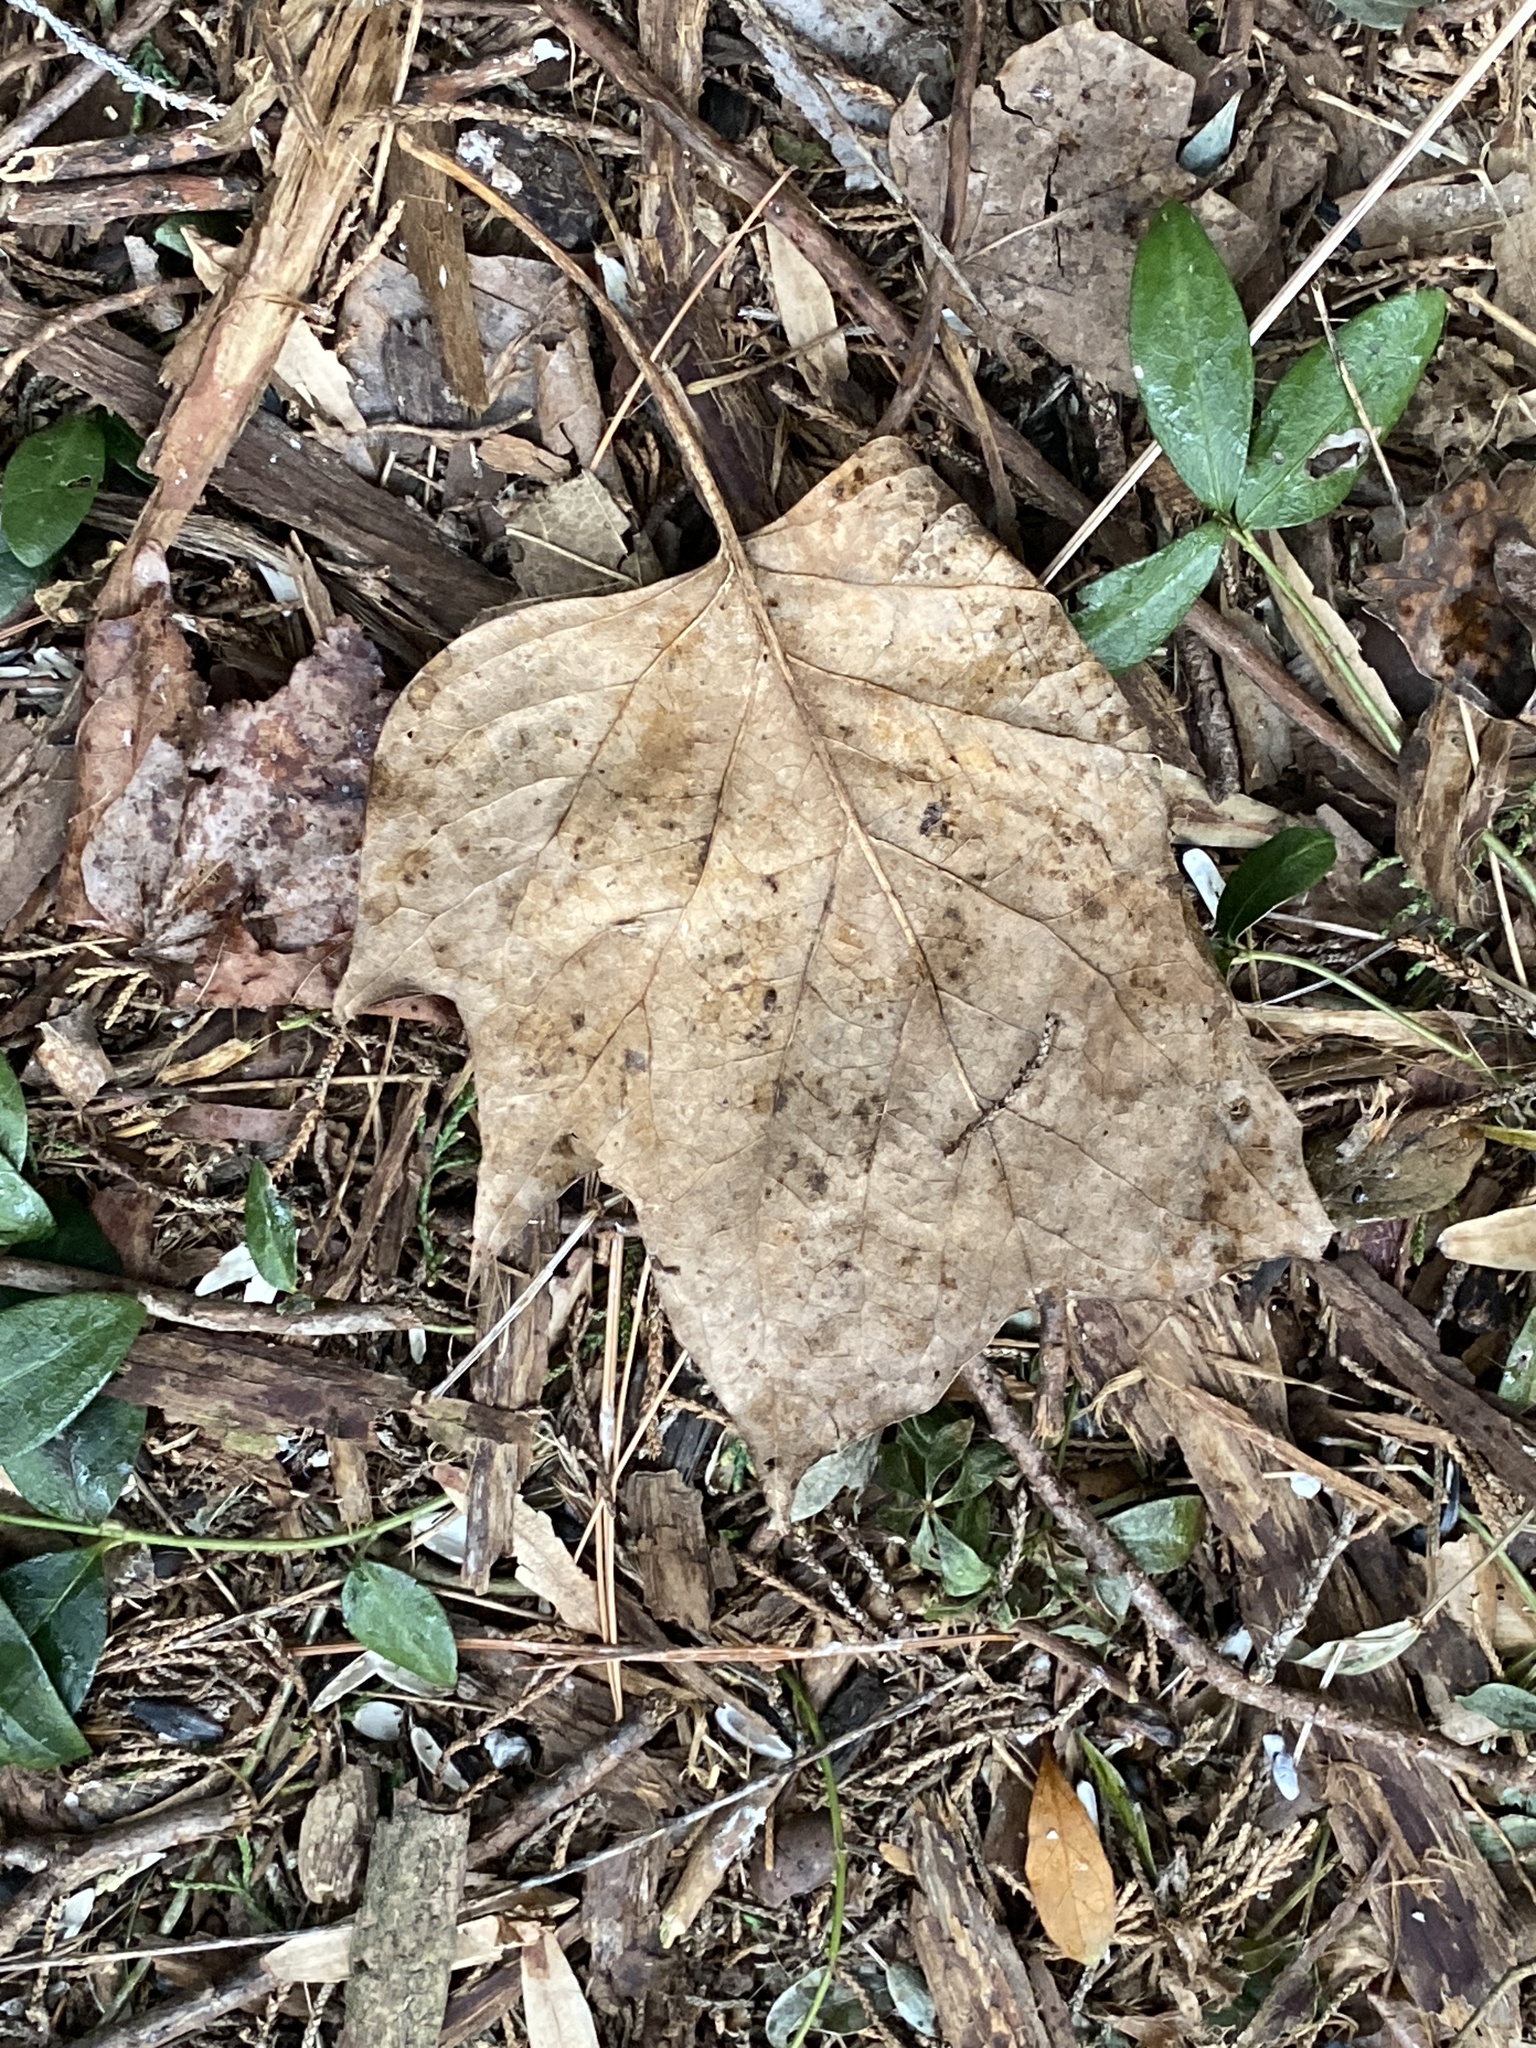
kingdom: Plantae
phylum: Tracheophyta
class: Magnoliopsida
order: Magnoliales
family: Magnoliaceae
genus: Liriodendron
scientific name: Liriodendron tulipifera
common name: Tulip tree
